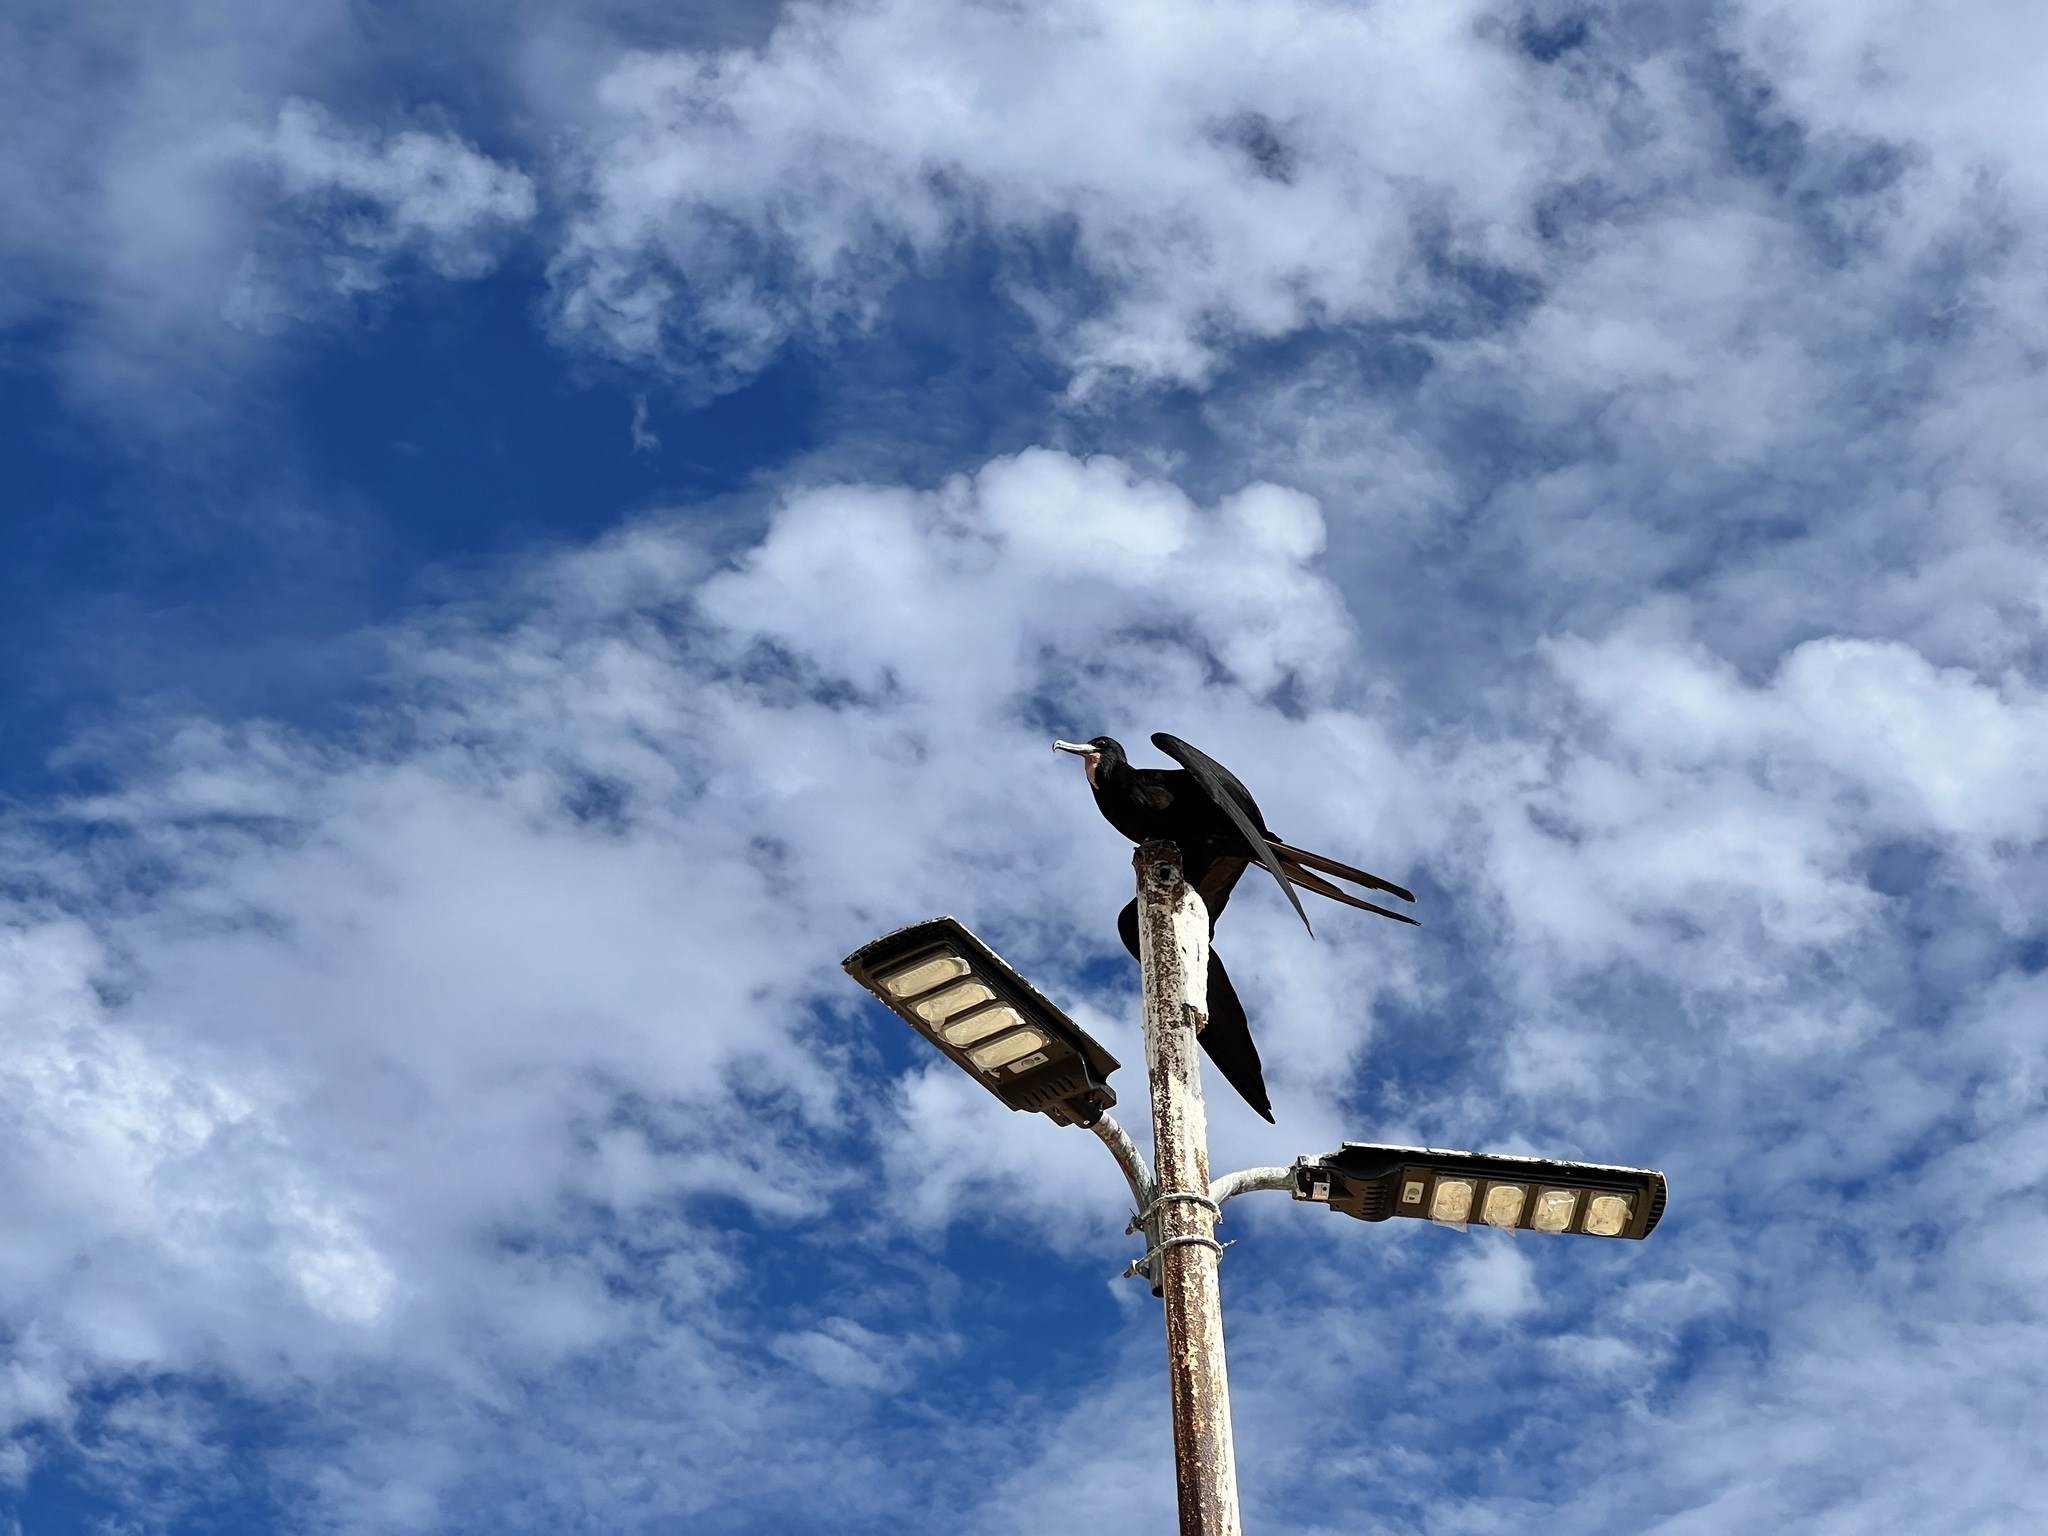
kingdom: Animalia
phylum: Chordata
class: Aves
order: Suliformes
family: Fregatidae
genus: Fregata
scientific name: Fregata magnificens
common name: Magnificent frigatebird
